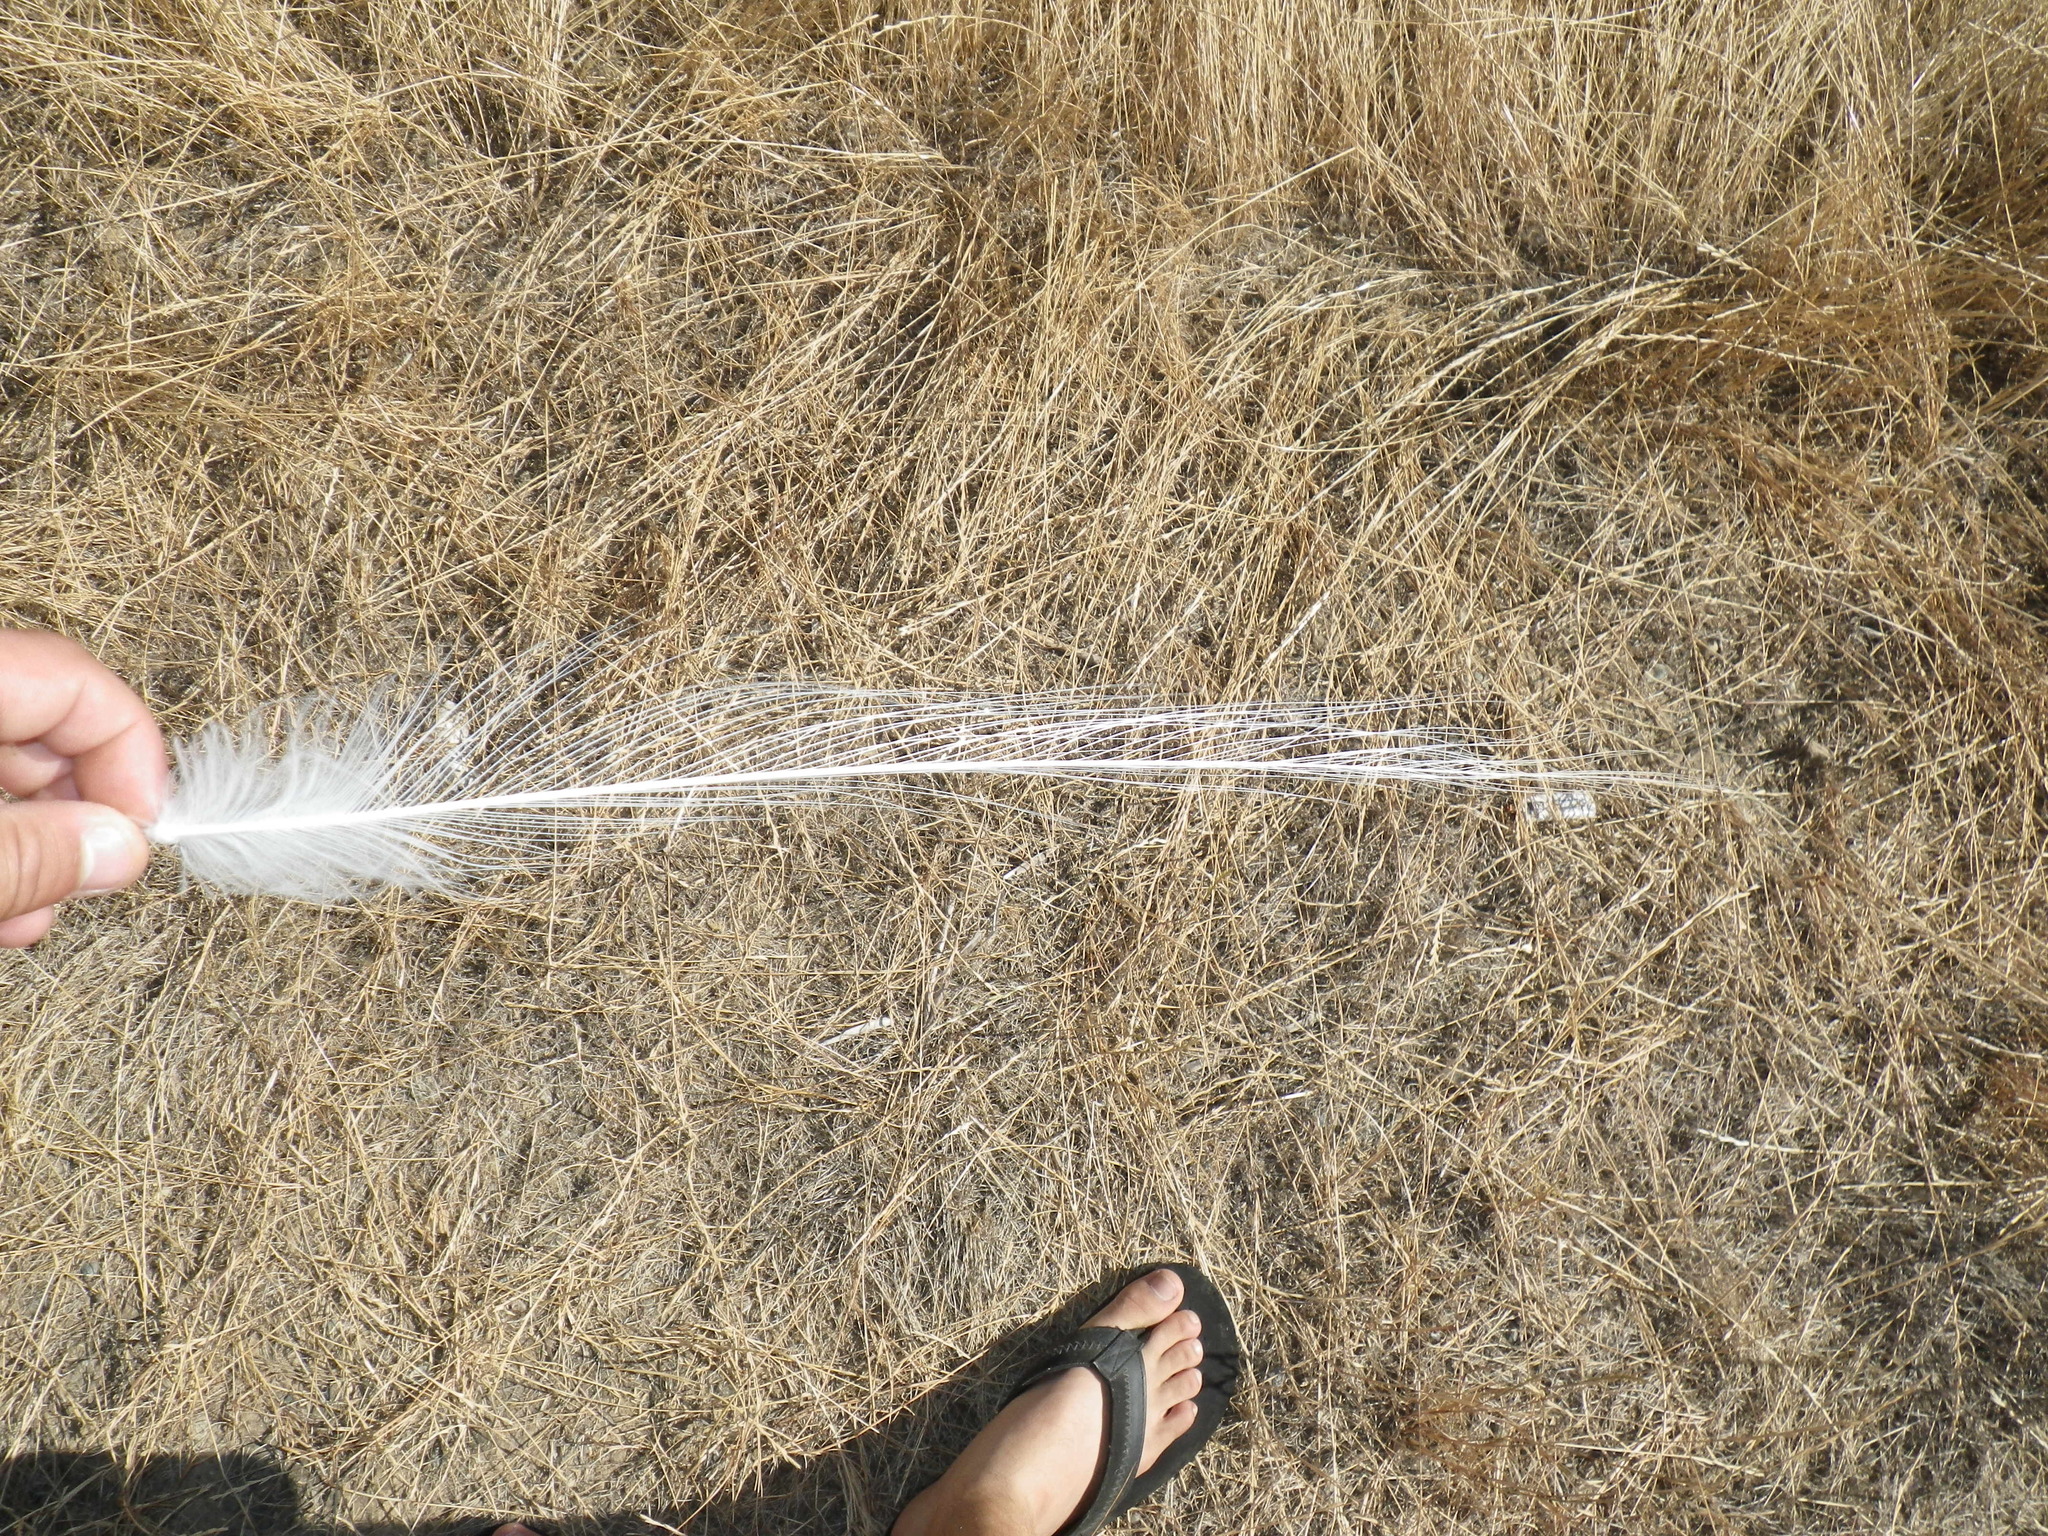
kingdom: Animalia
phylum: Chordata
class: Aves
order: Pelecaniformes
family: Ardeidae
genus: Ardea
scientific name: Ardea alba
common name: Great egret
